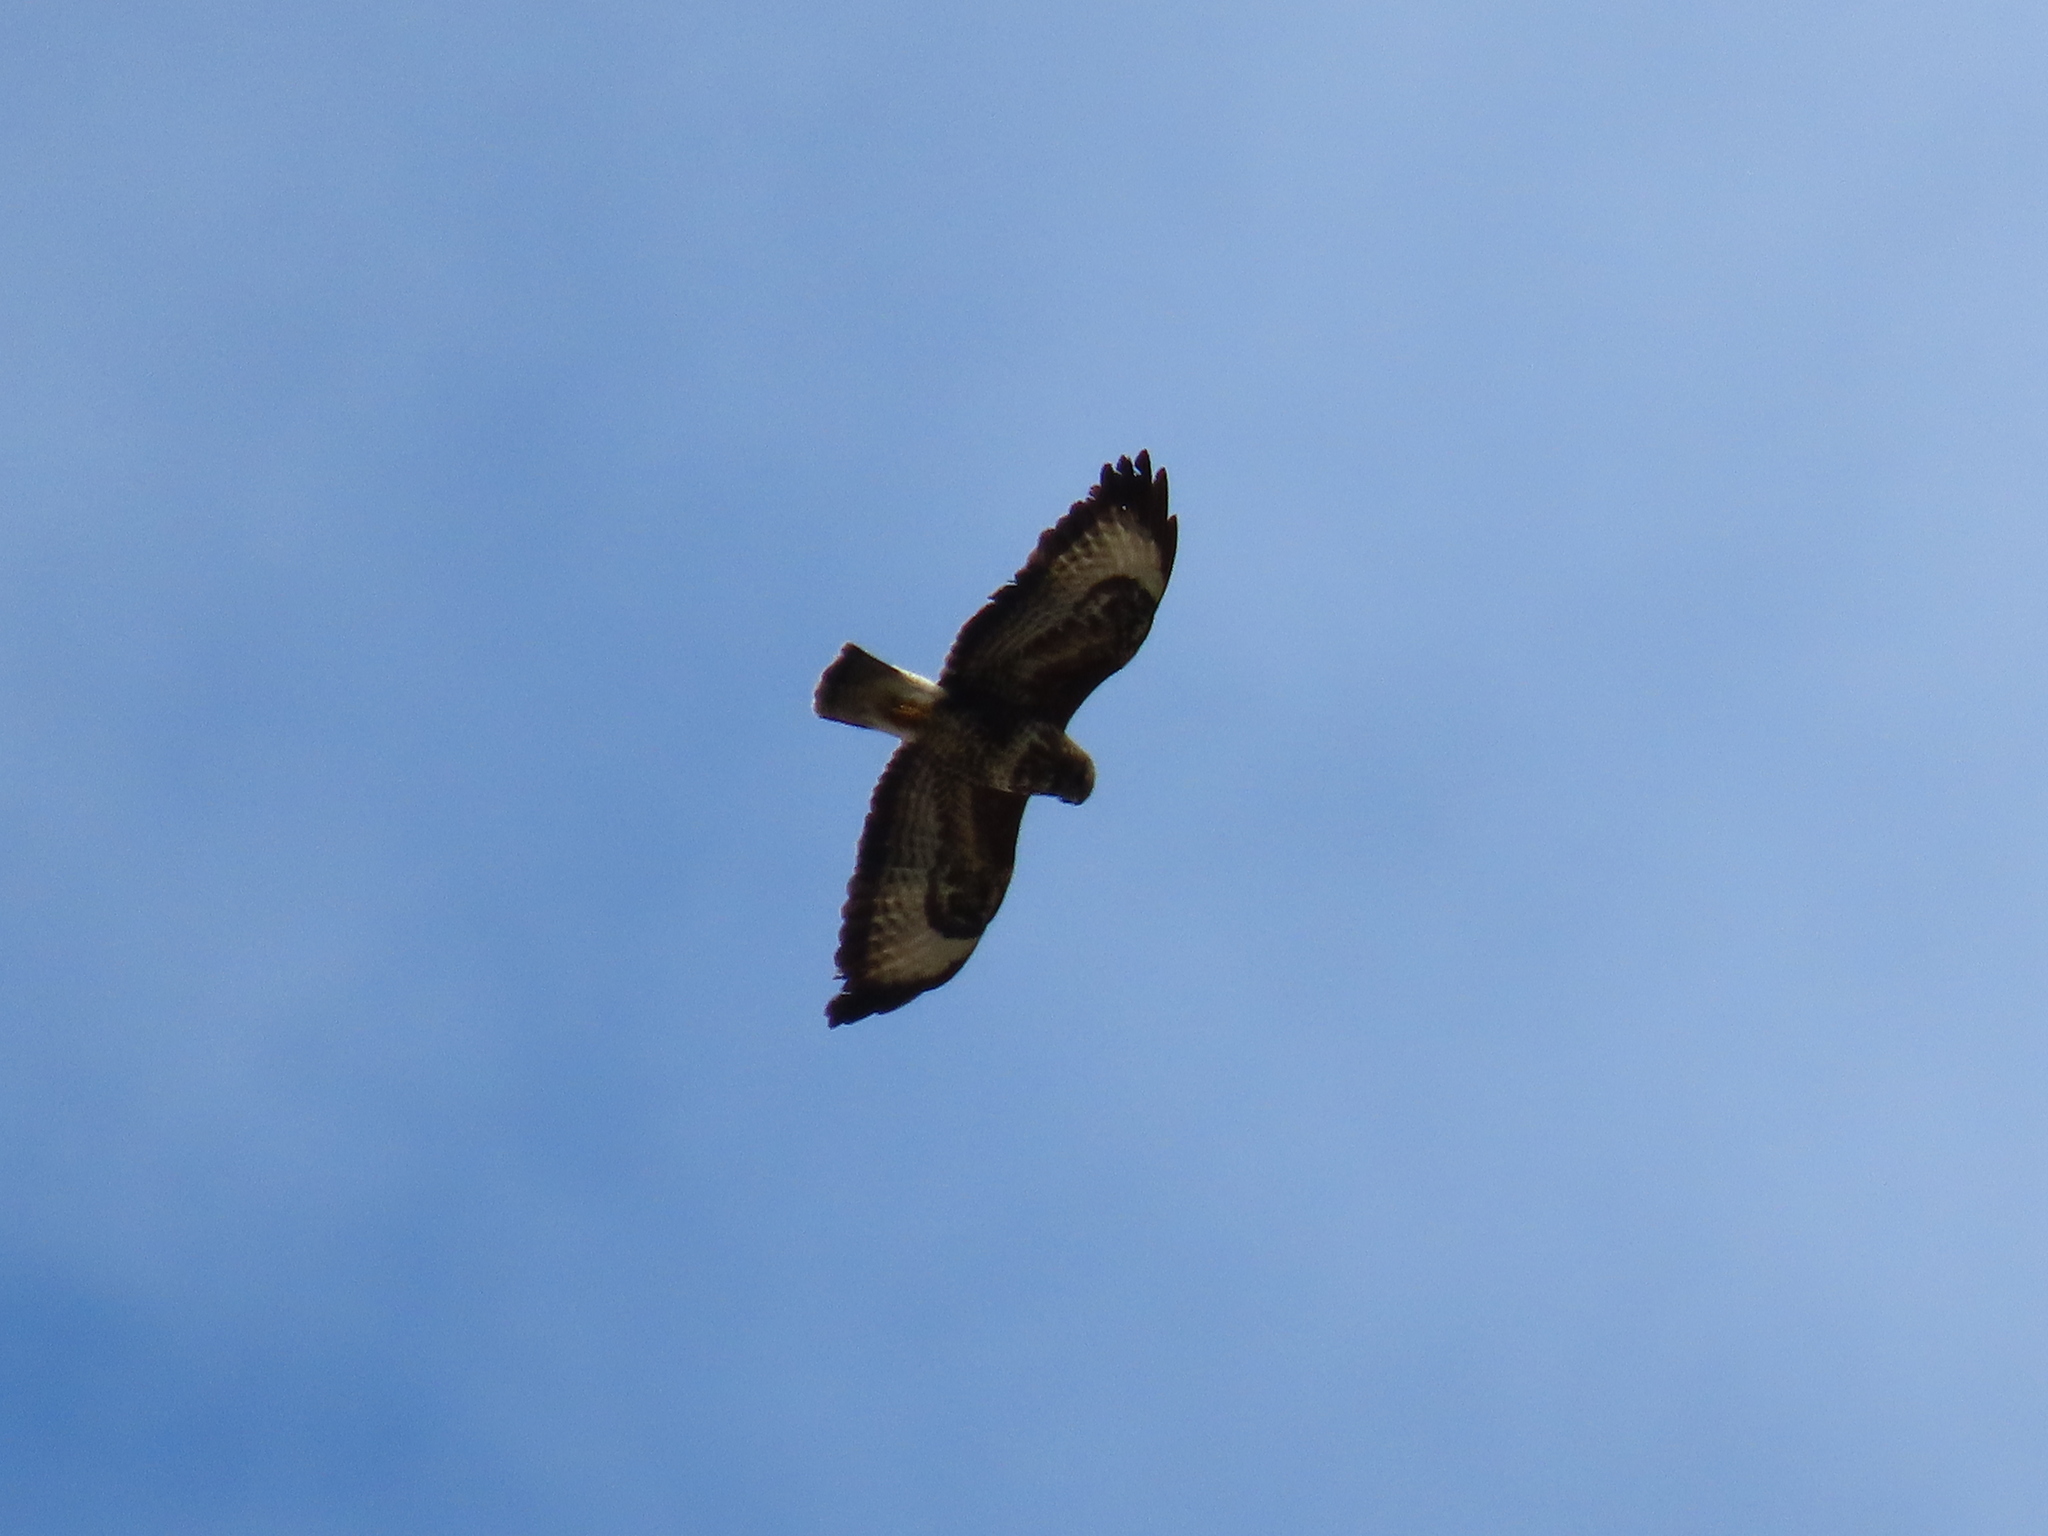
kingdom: Animalia
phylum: Chordata
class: Aves
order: Accipitriformes
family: Accipitridae
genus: Buteo
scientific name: Buteo buteo
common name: Common buzzard
